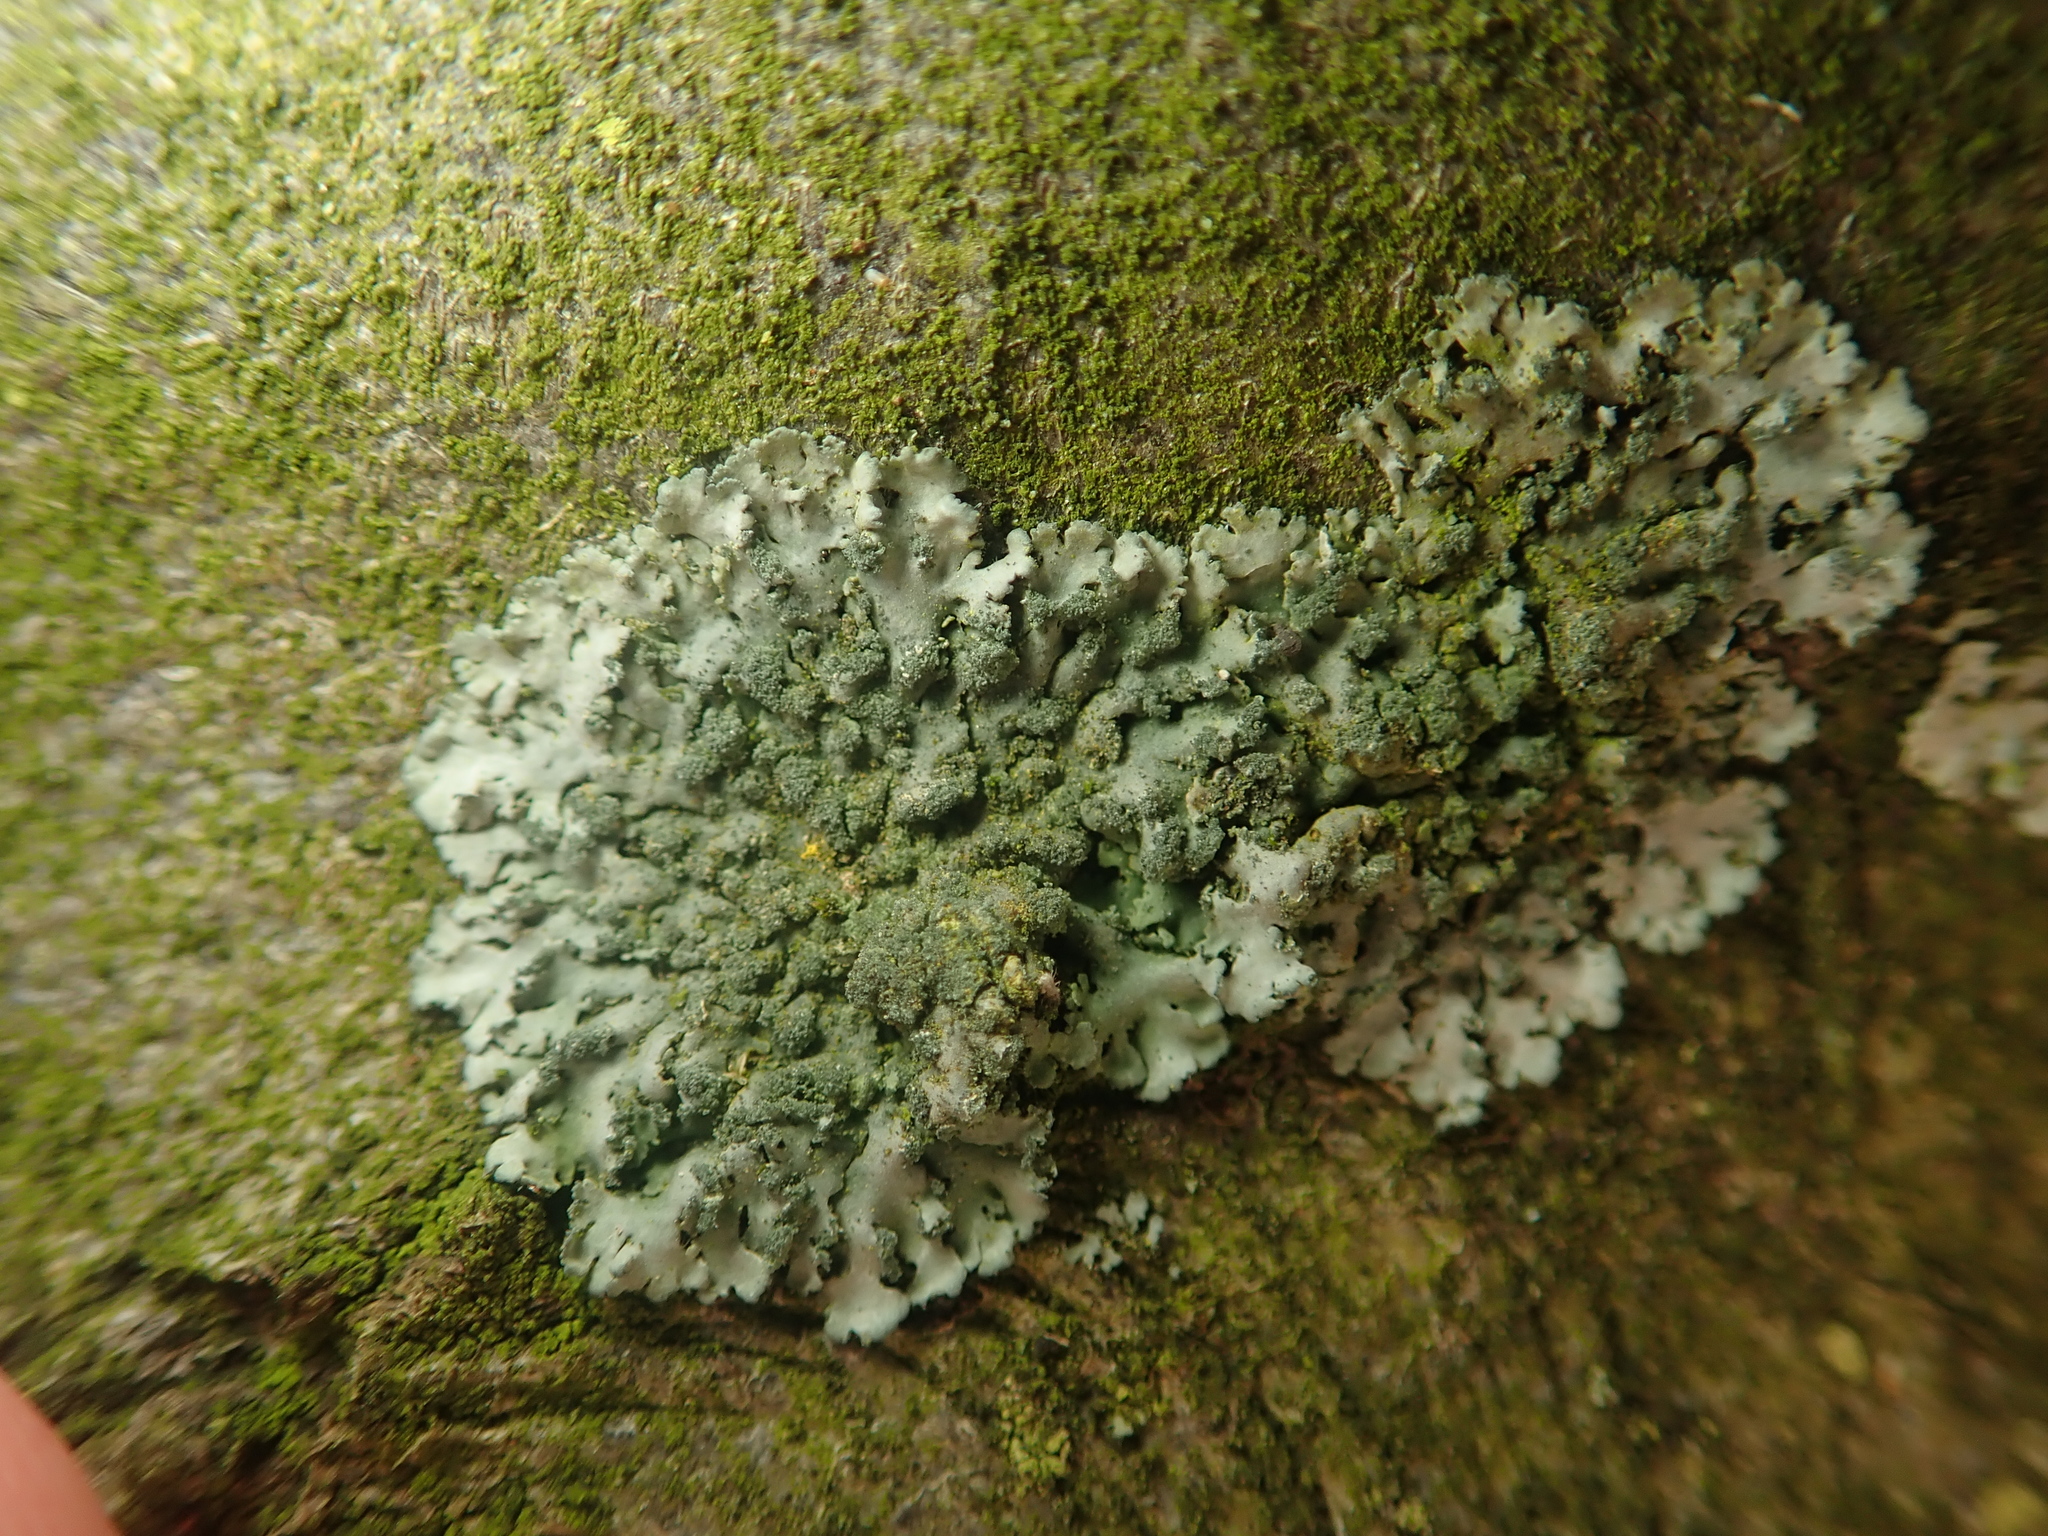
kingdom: Fungi
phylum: Ascomycota
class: Lecanoromycetes
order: Caliciales
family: Physciaceae
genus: Phaeophyscia
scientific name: Phaeophyscia orbicularis
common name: Mealy shadow lichen
